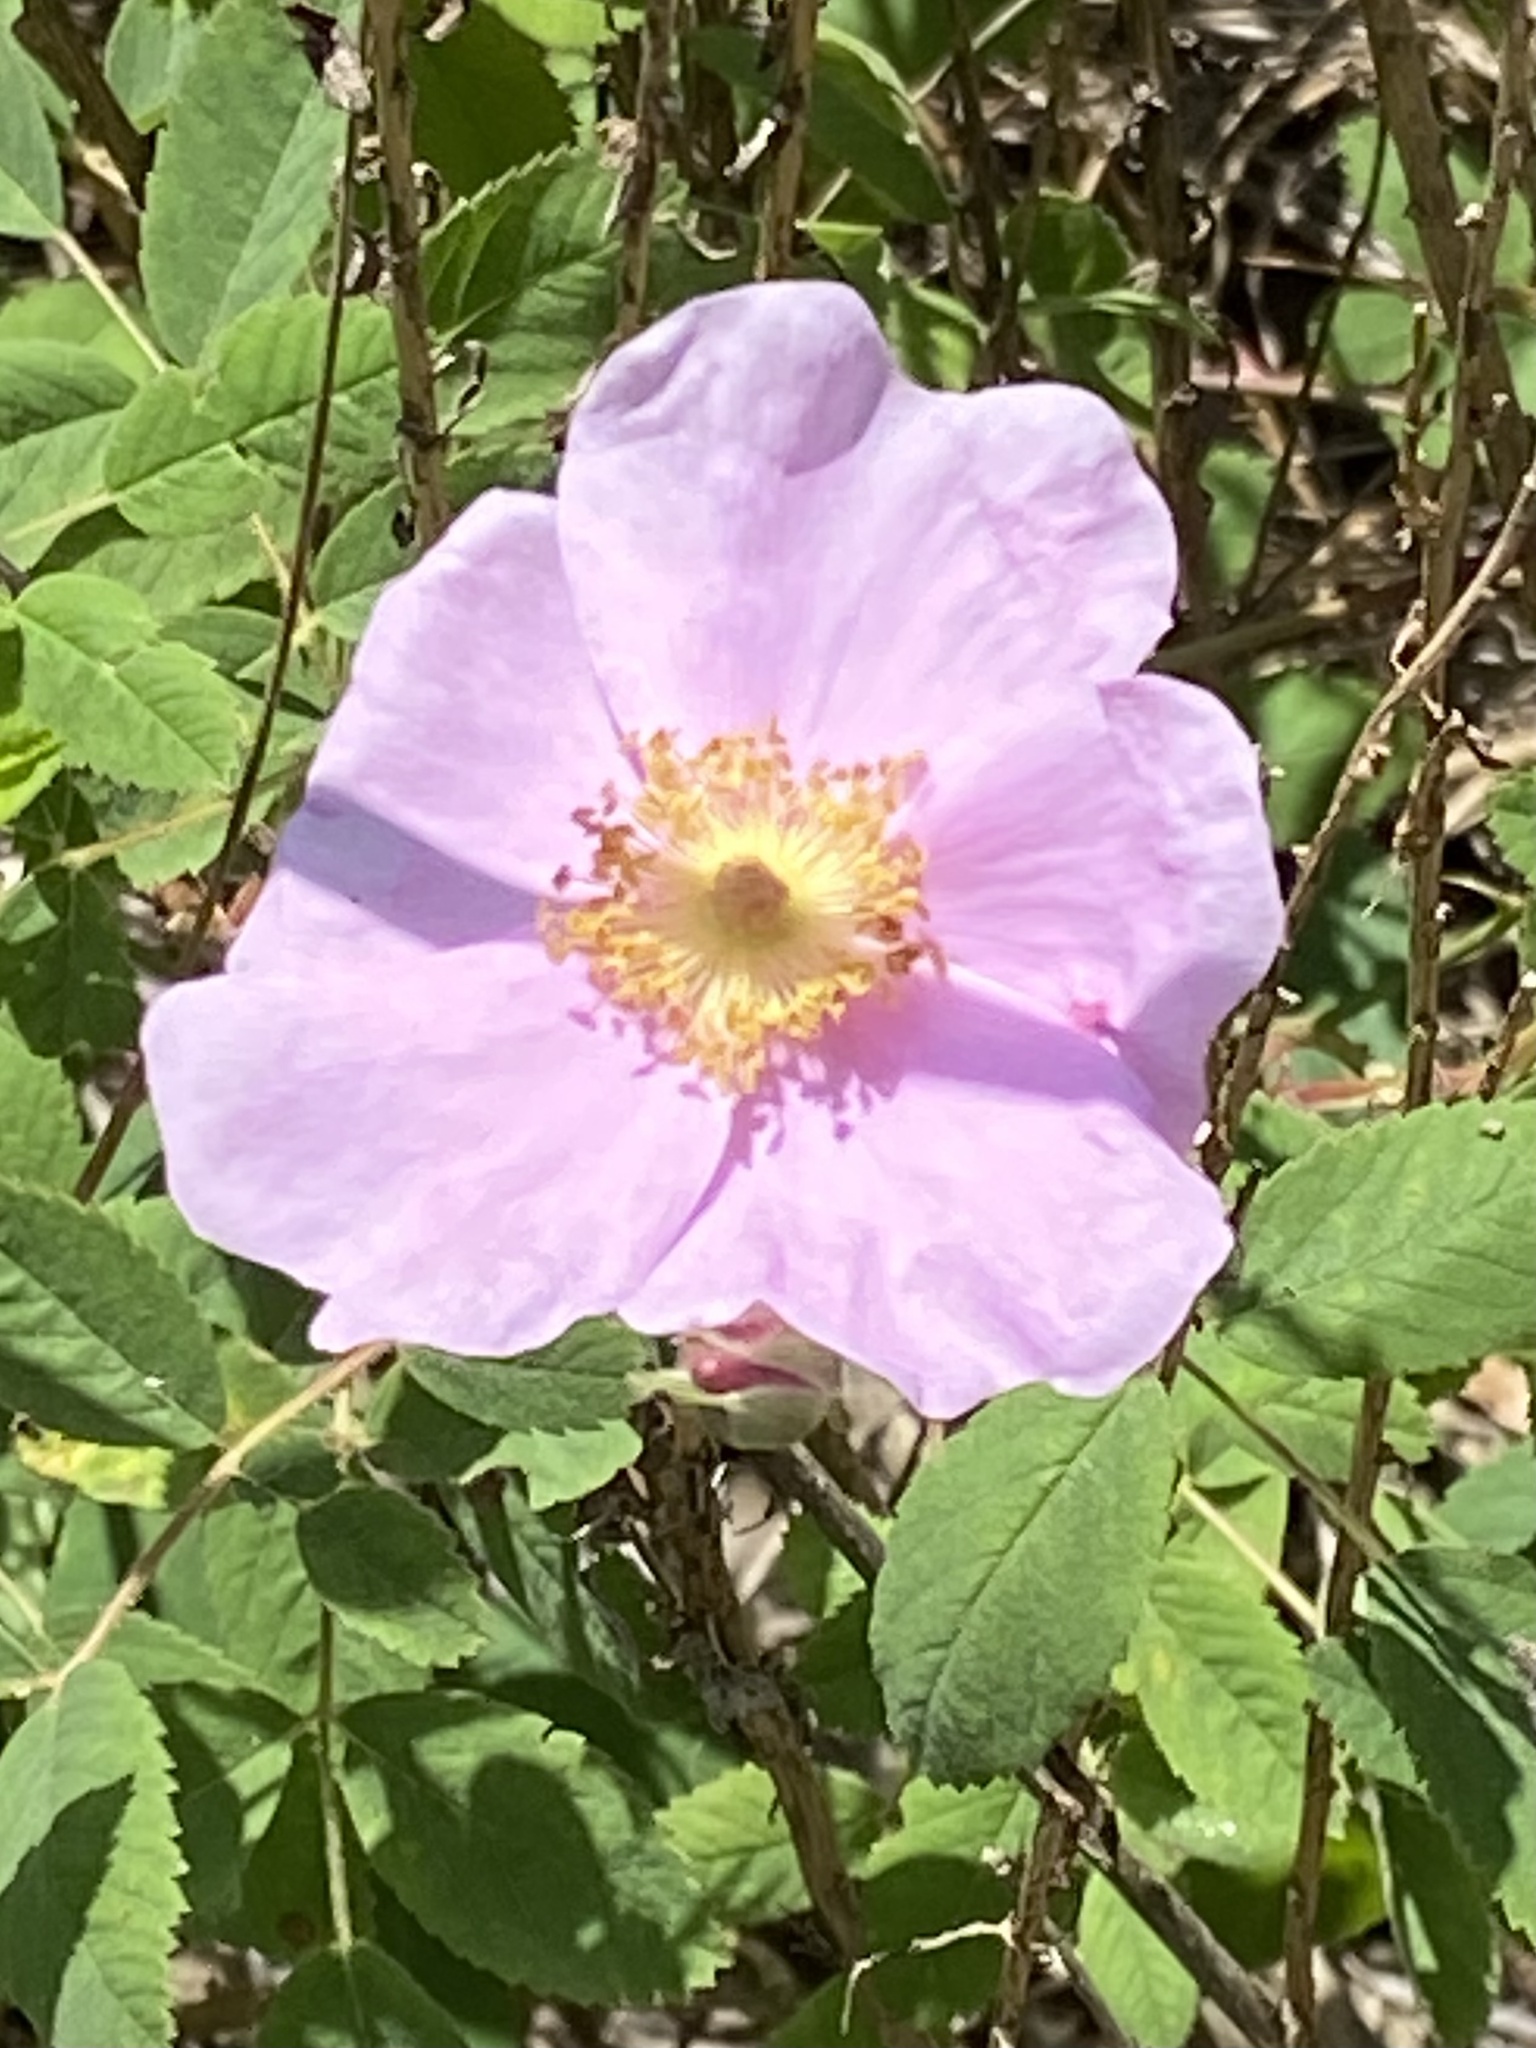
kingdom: Plantae
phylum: Tracheophyta
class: Magnoliopsida
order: Rosales
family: Rosaceae
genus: Rosa
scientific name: Rosa californica
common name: California rose
